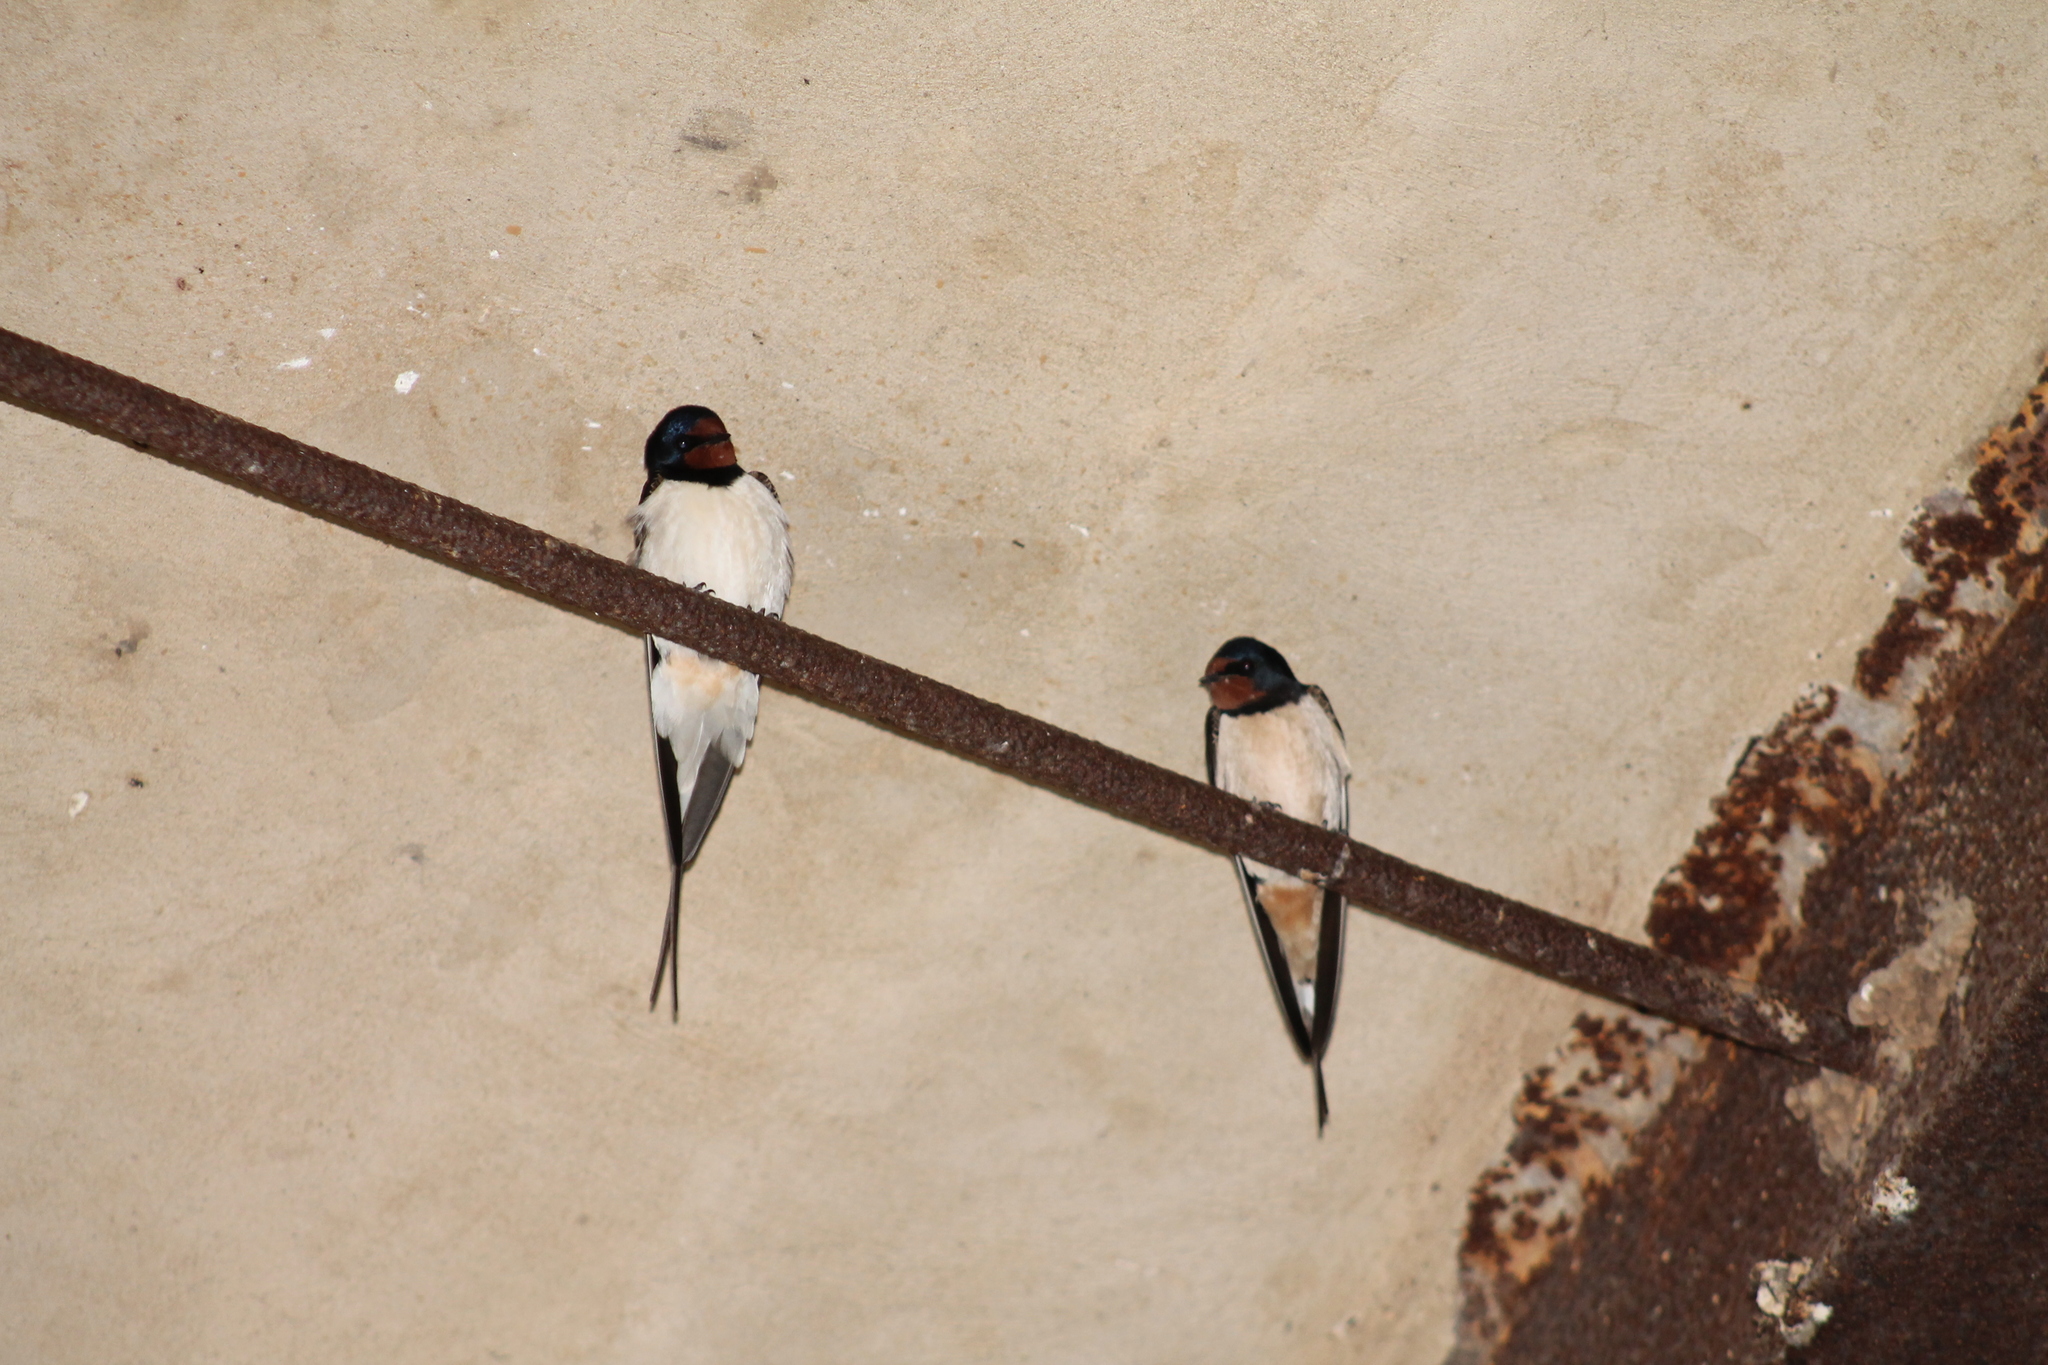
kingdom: Animalia
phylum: Chordata
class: Aves
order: Passeriformes
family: Hirundinidae
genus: Hirundo
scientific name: Hirundo rustica
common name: Barn swallow
